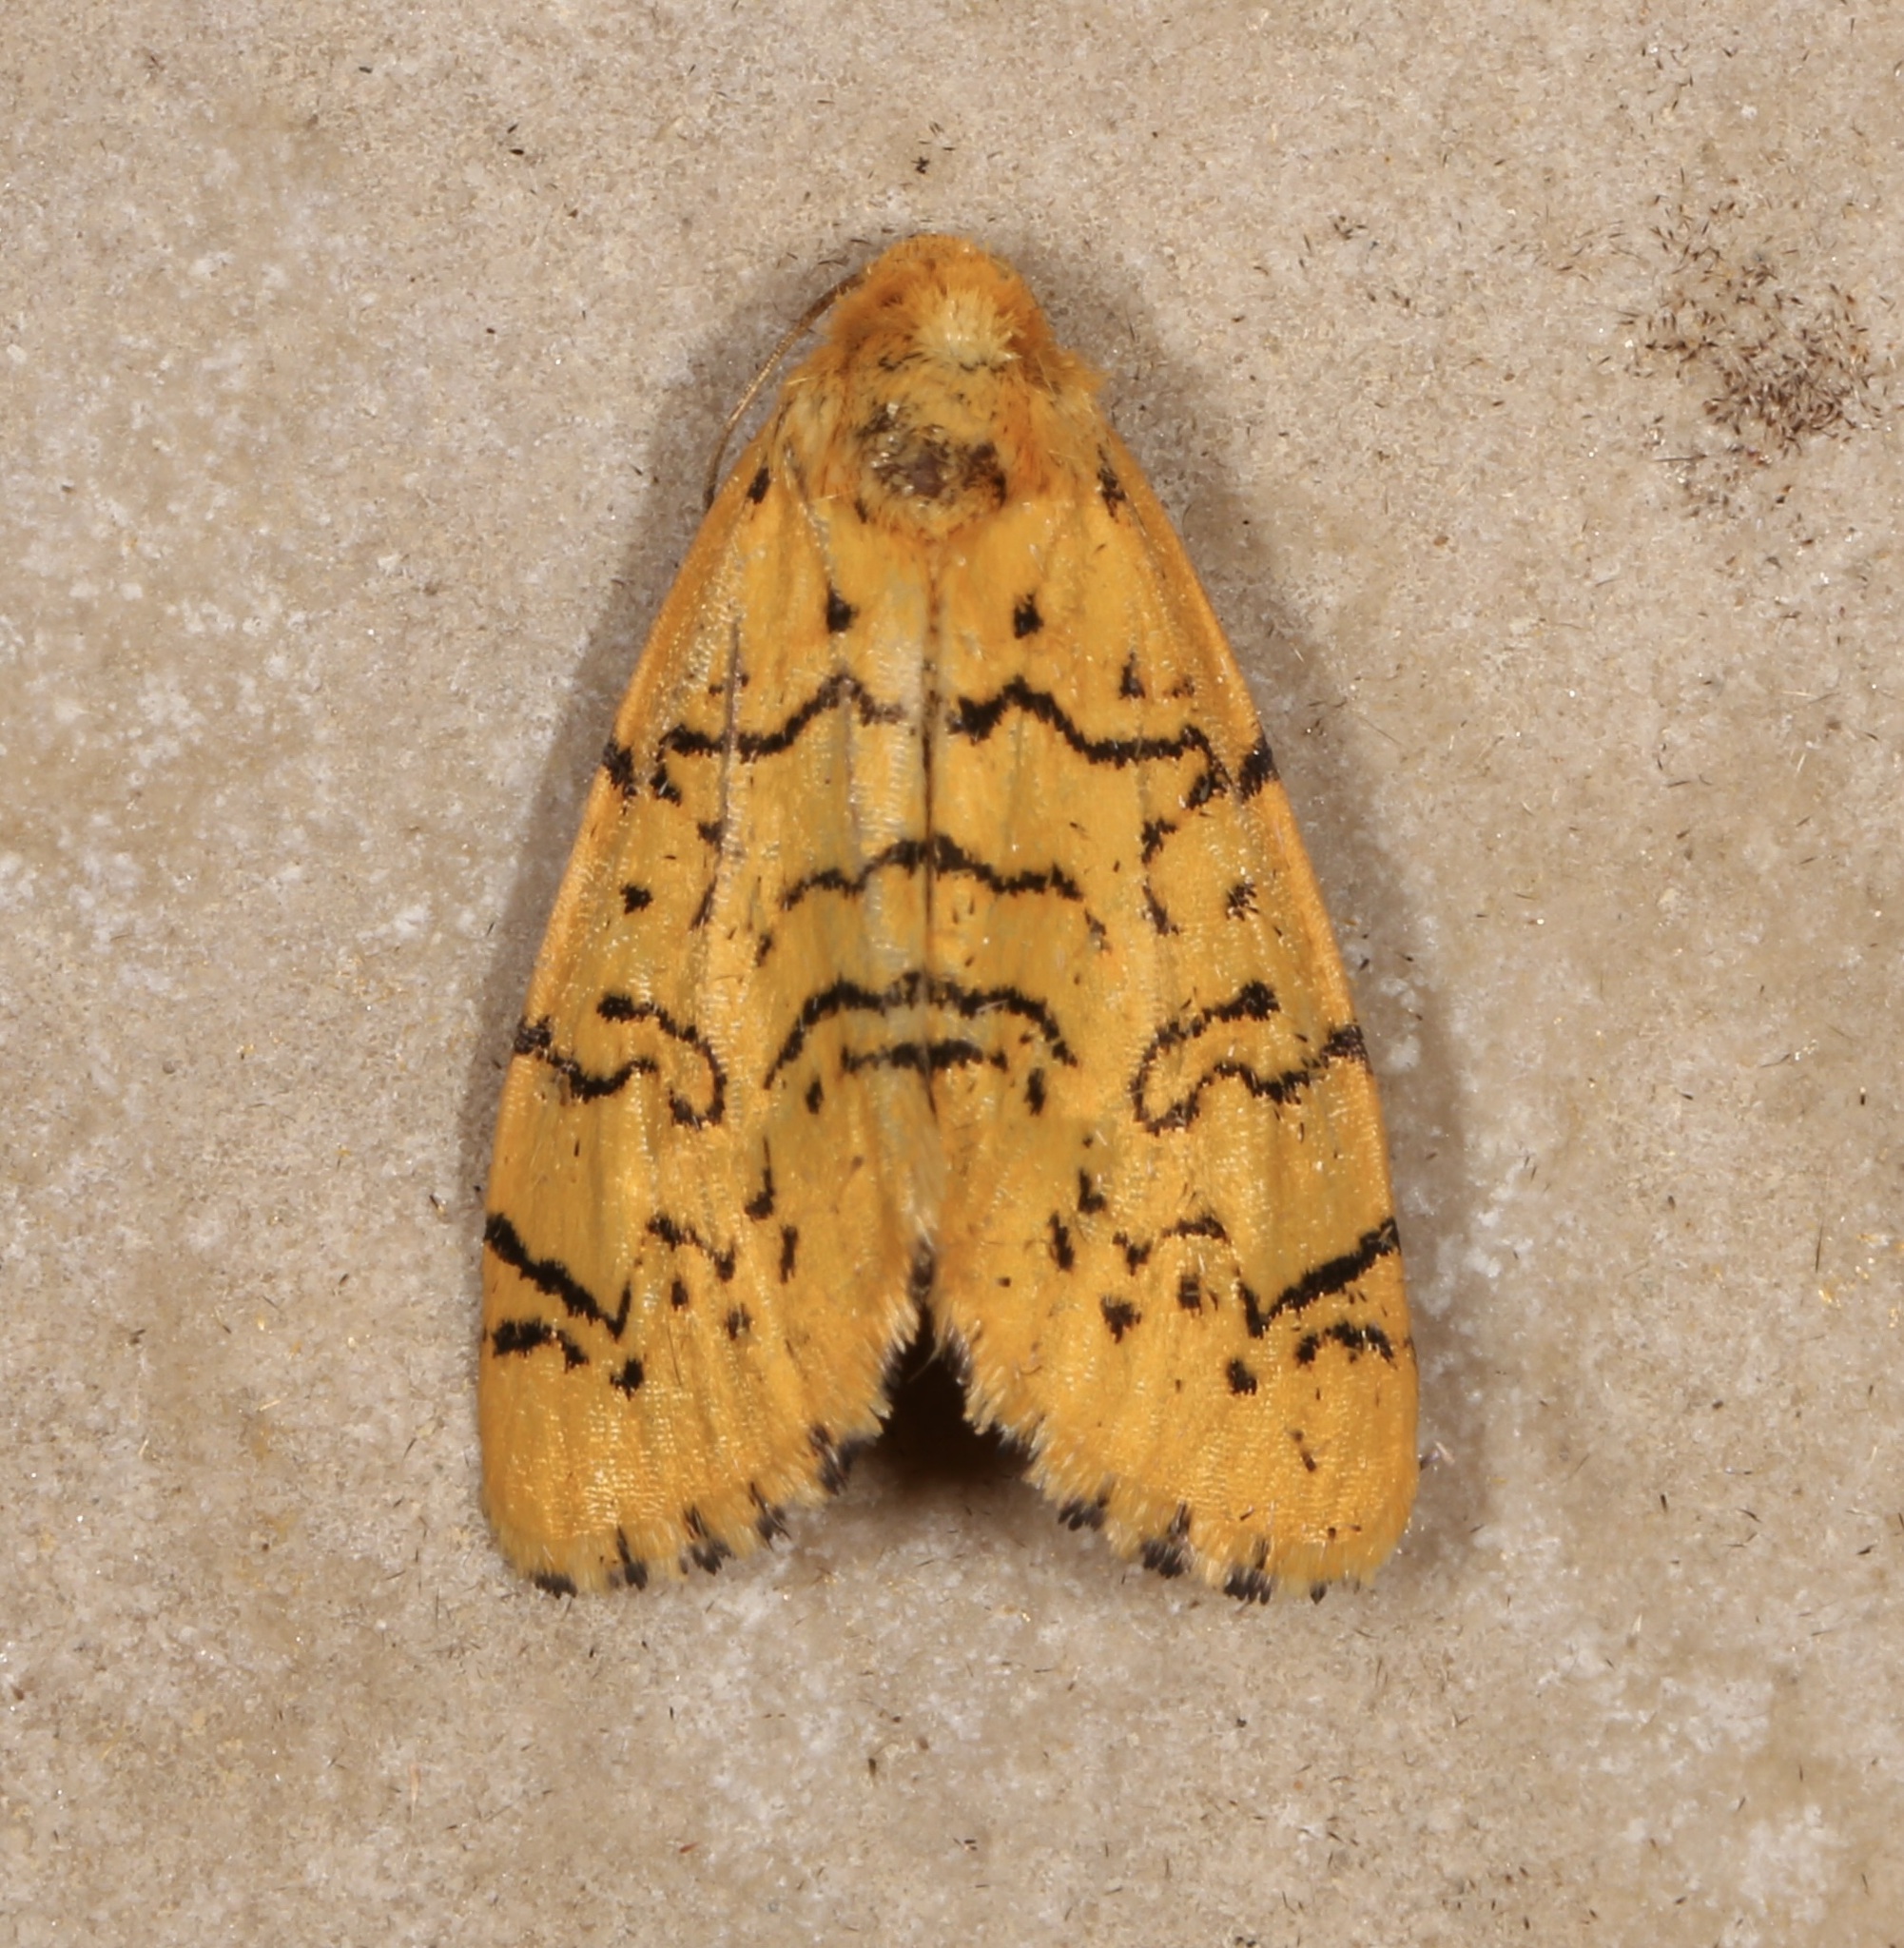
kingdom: Animalia
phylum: Arthropoda
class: Insecta
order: Lepidoptera
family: Noctuidae
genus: Chrysoecia
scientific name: Chrysoecia atrolinea
